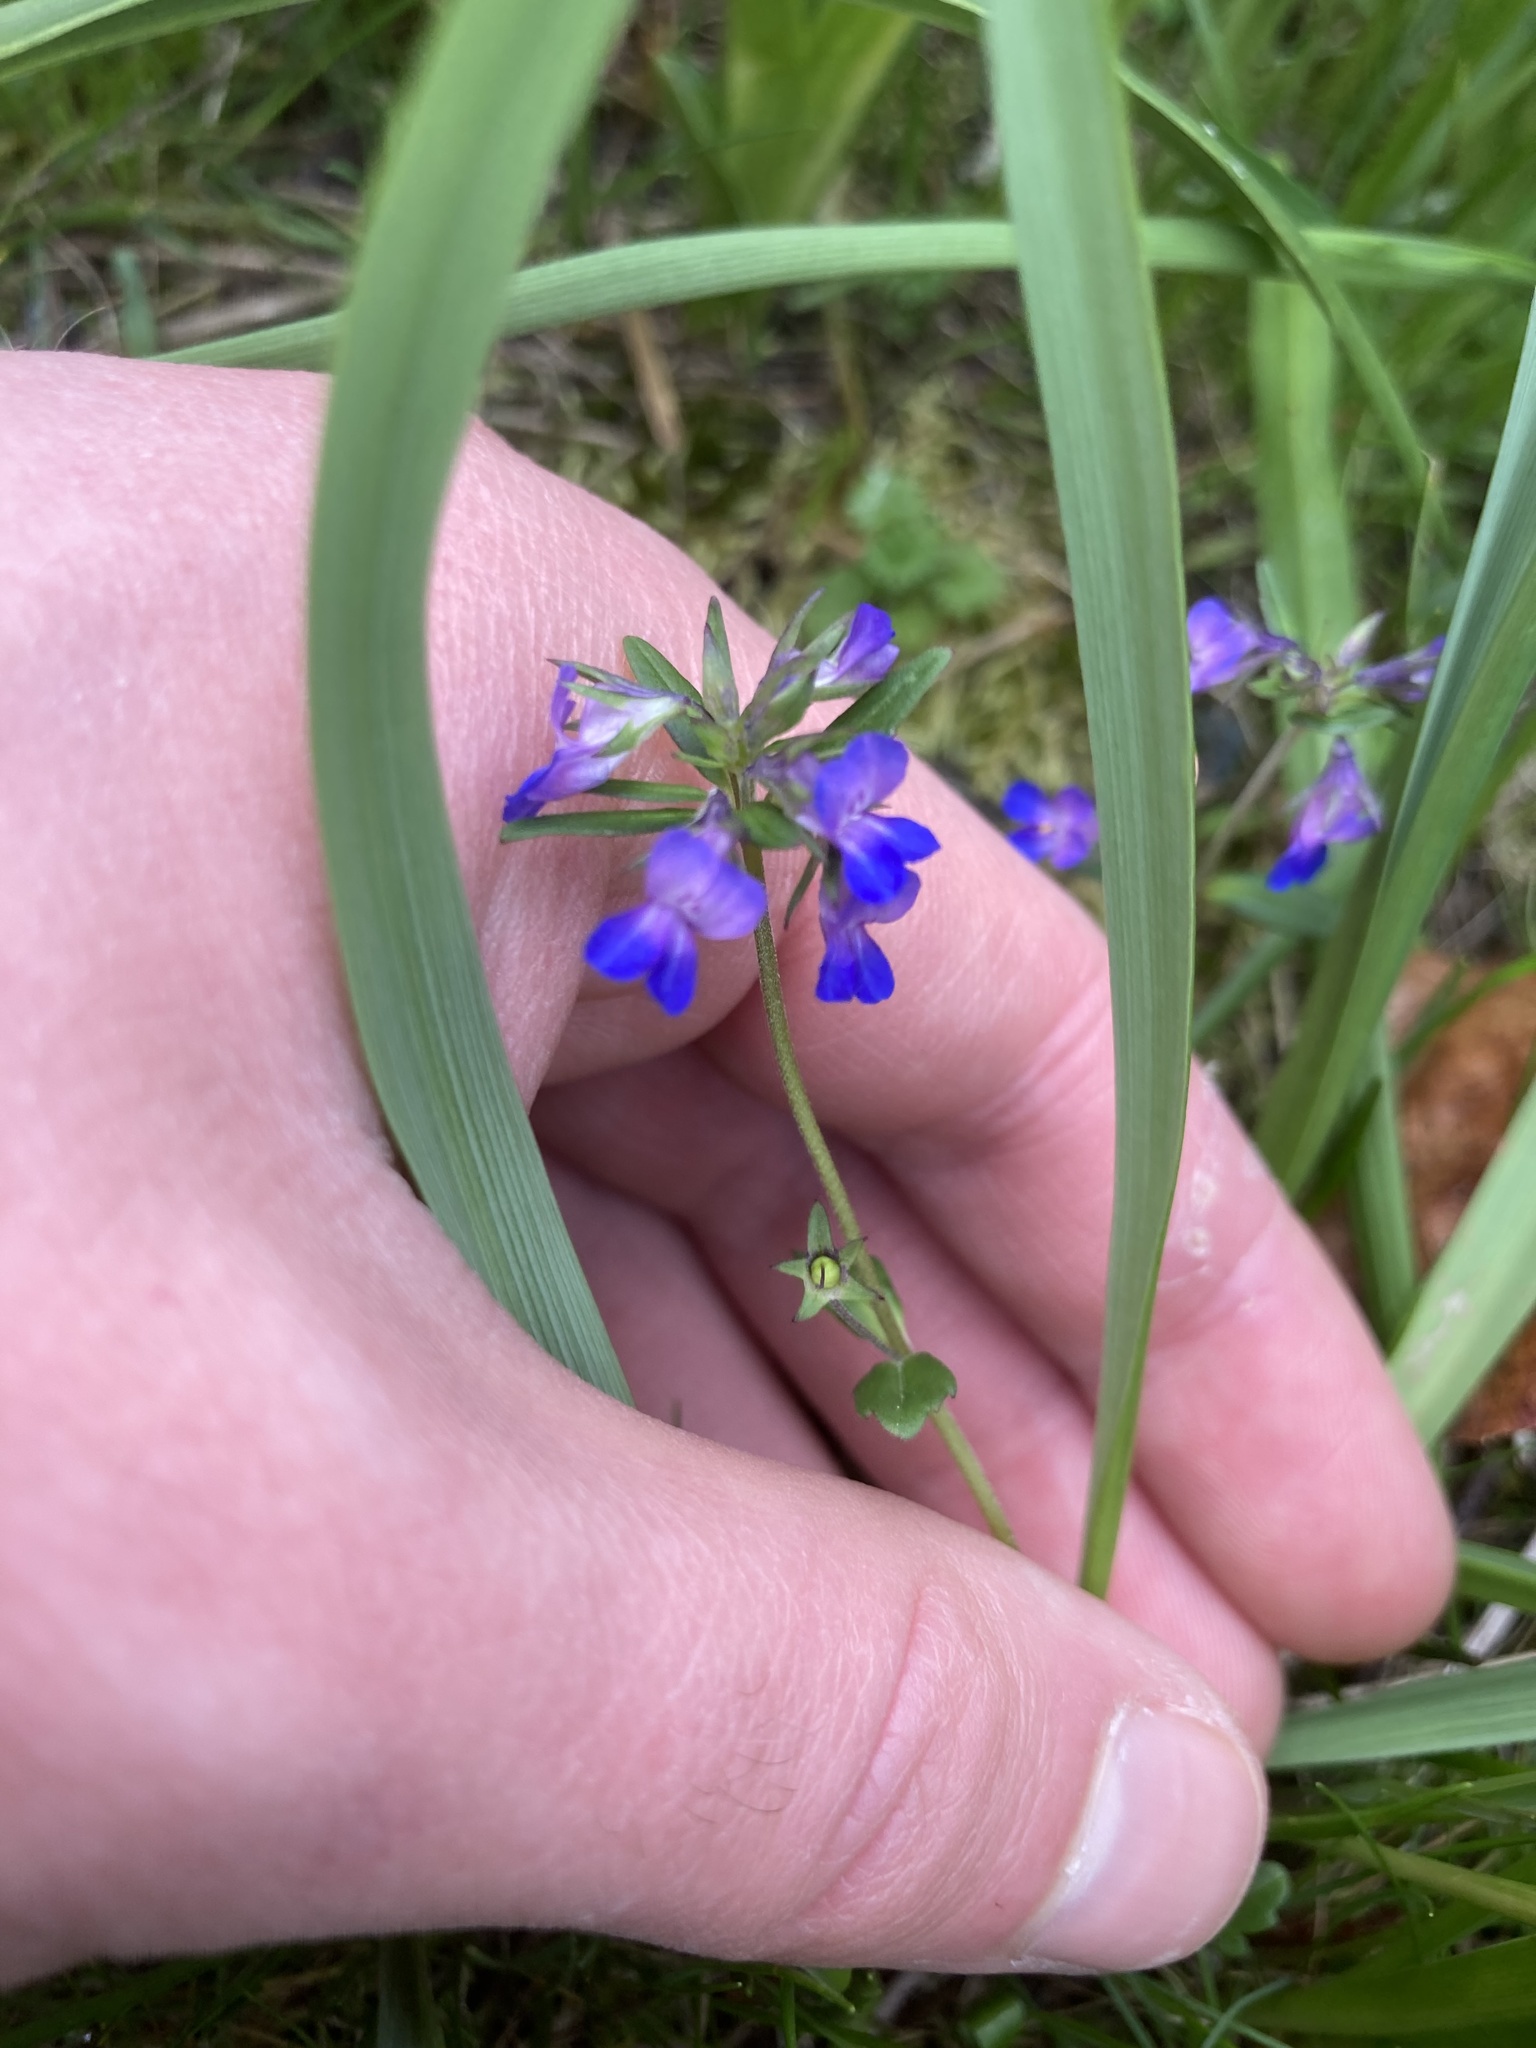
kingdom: Plantae
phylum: Tracheophyta
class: Magnoliopsida
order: Lamiales
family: Plantaginaceae
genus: Collinsia
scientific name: Collinsia grandiflora
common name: Large-flower blue-eyed-mary
